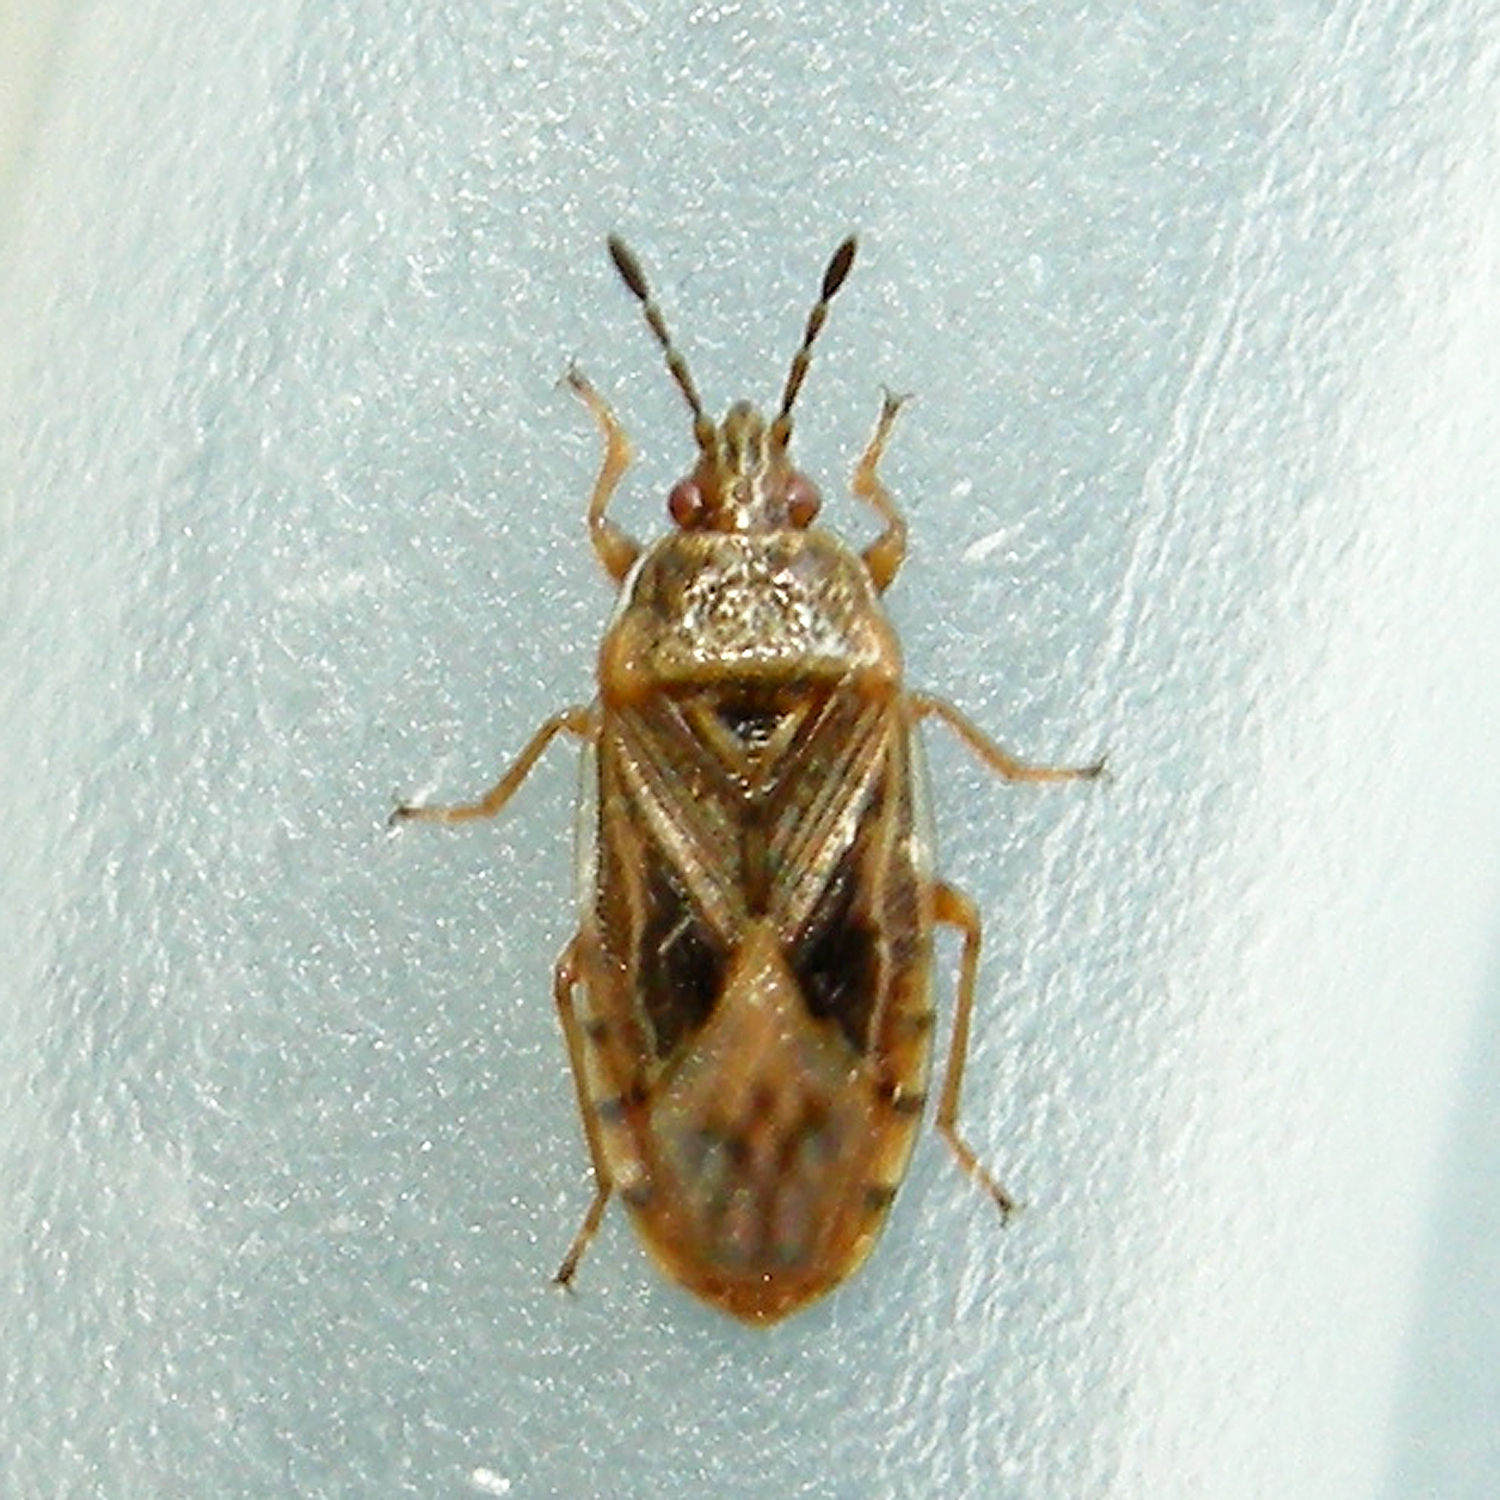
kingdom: Animalia
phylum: Arthropoda
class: Insecta
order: Hemiptera
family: Artheneidae
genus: Chilacis
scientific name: Chilacis typhae
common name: Cattail bug
